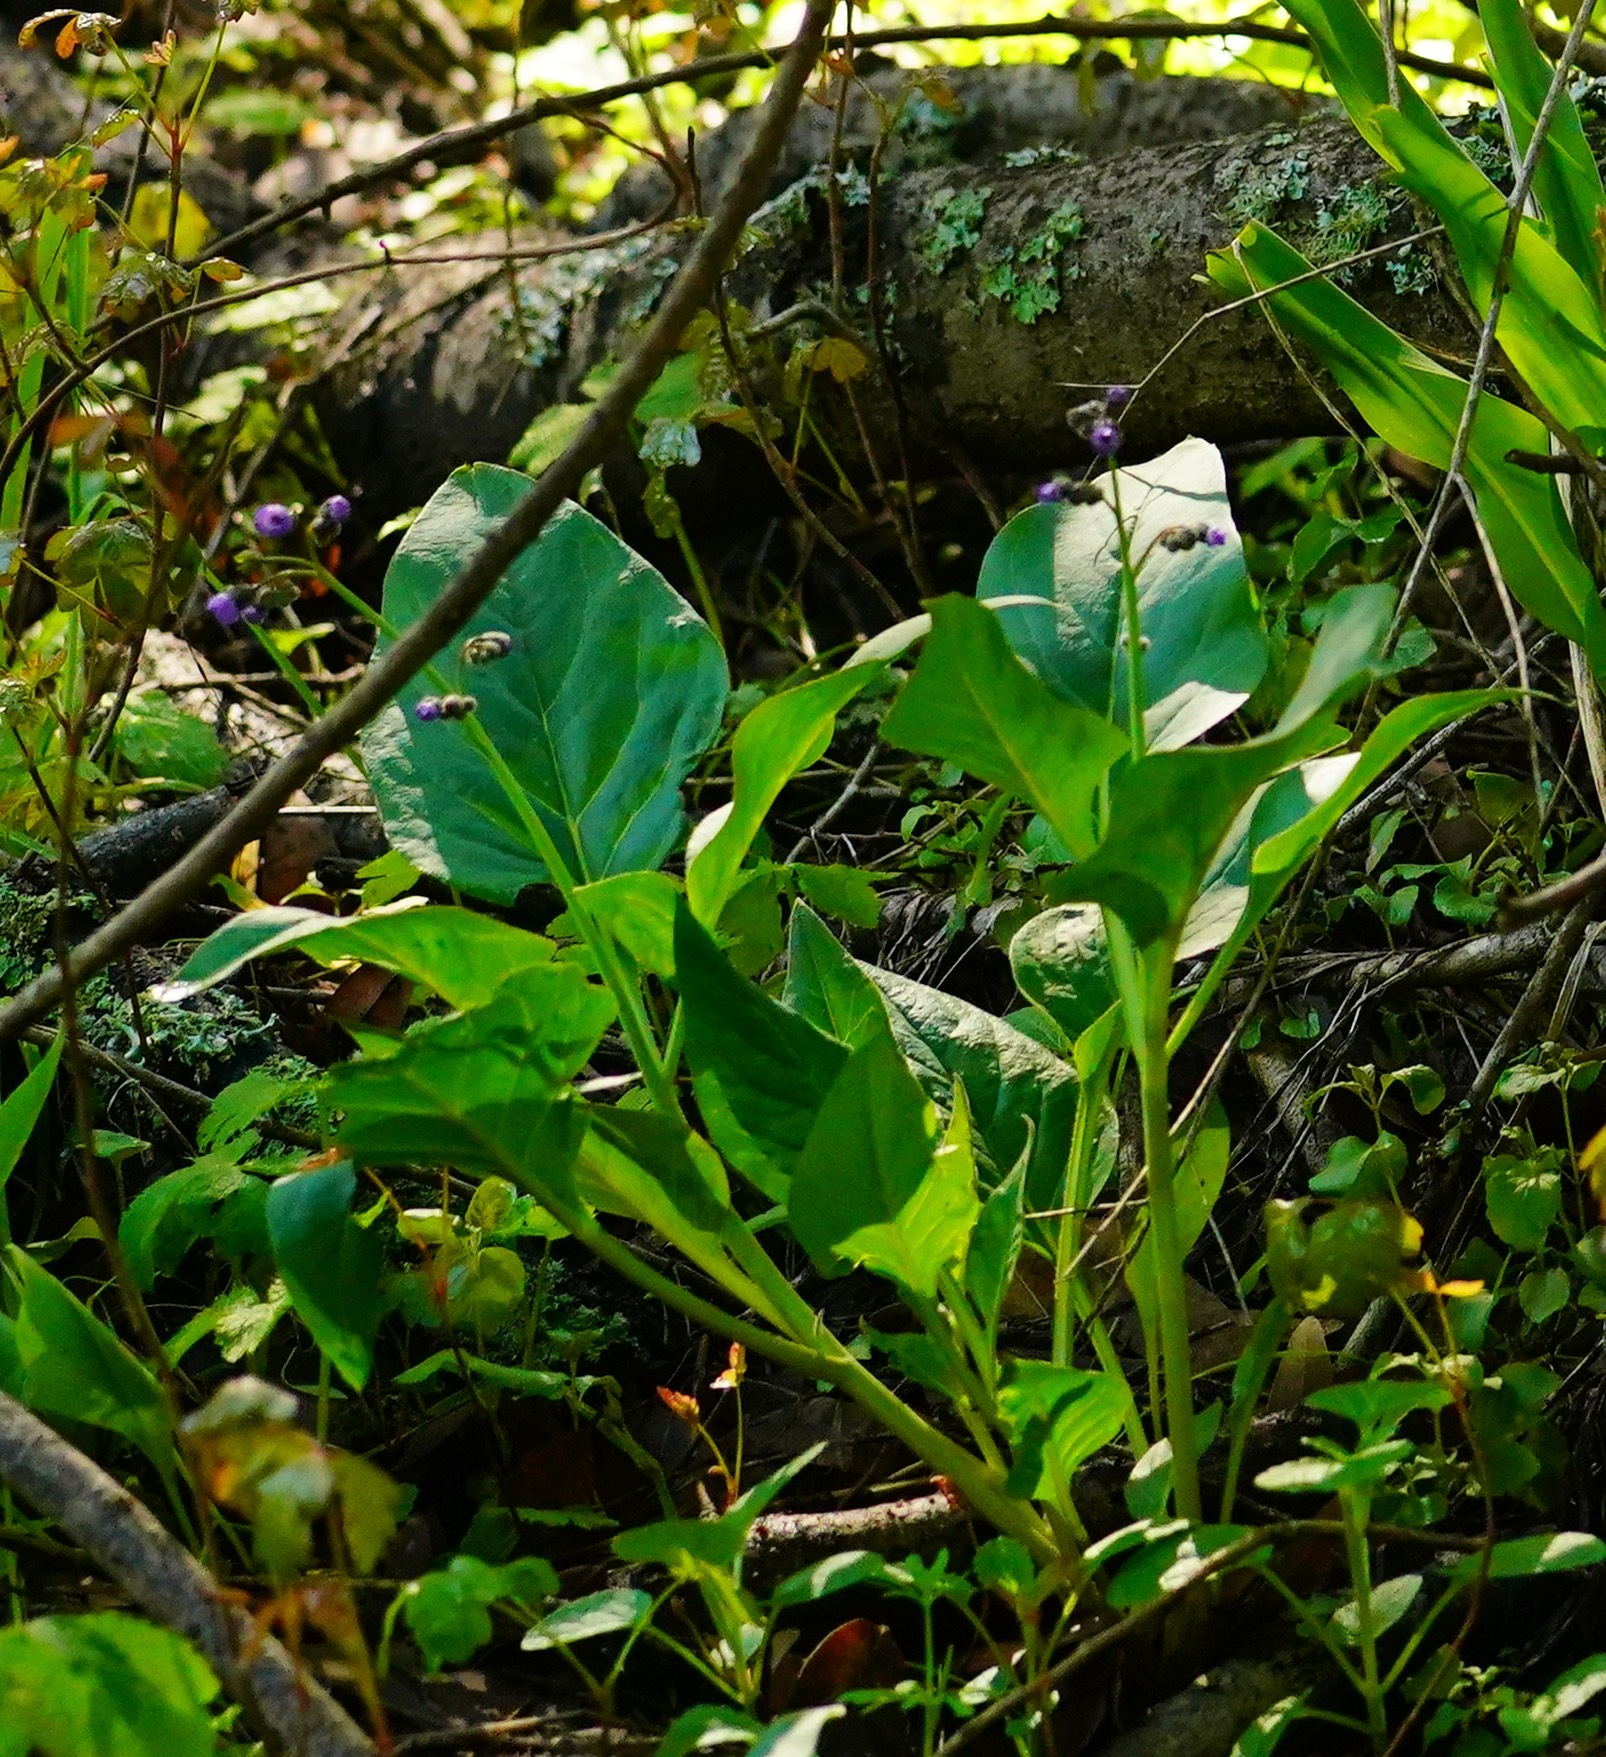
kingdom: Plantae
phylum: Tracheophyta
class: Magnoliopsida
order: Boraginales
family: Boraginaceae
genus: Adelinia
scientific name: Adelinia grande
